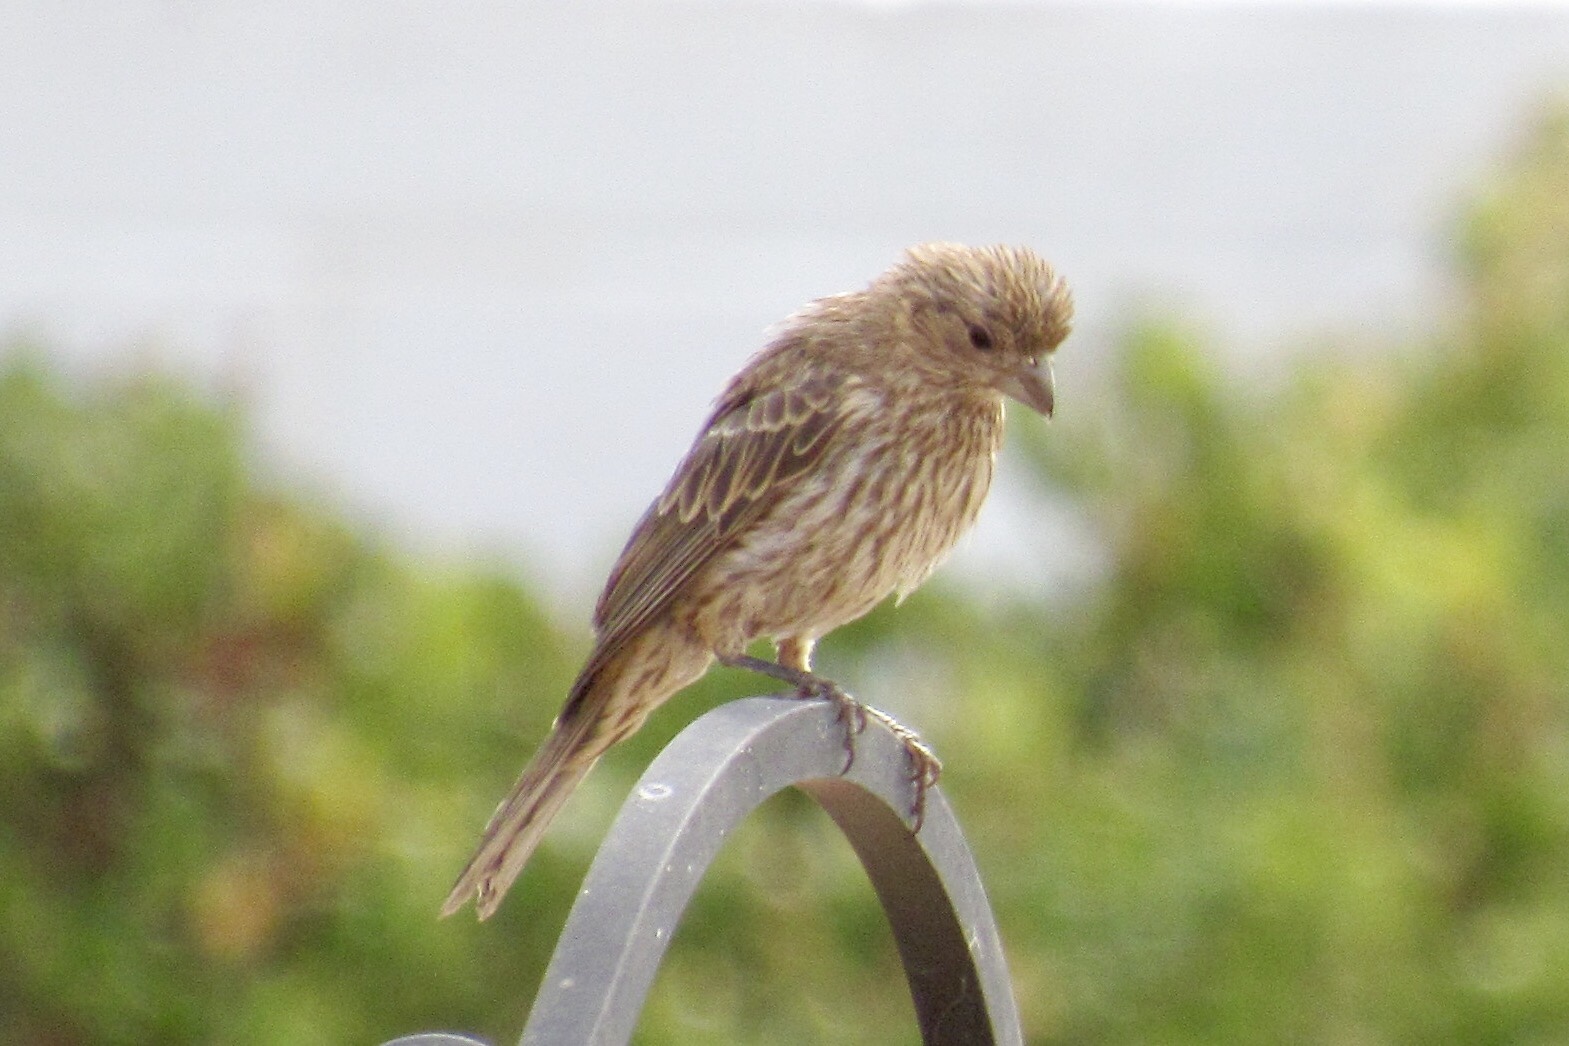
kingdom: Animalia
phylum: Chordata
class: Aves
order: Passeriformes
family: Fringillidae
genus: Haemorhous
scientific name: Haemorhous mexicanus
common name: House finch
